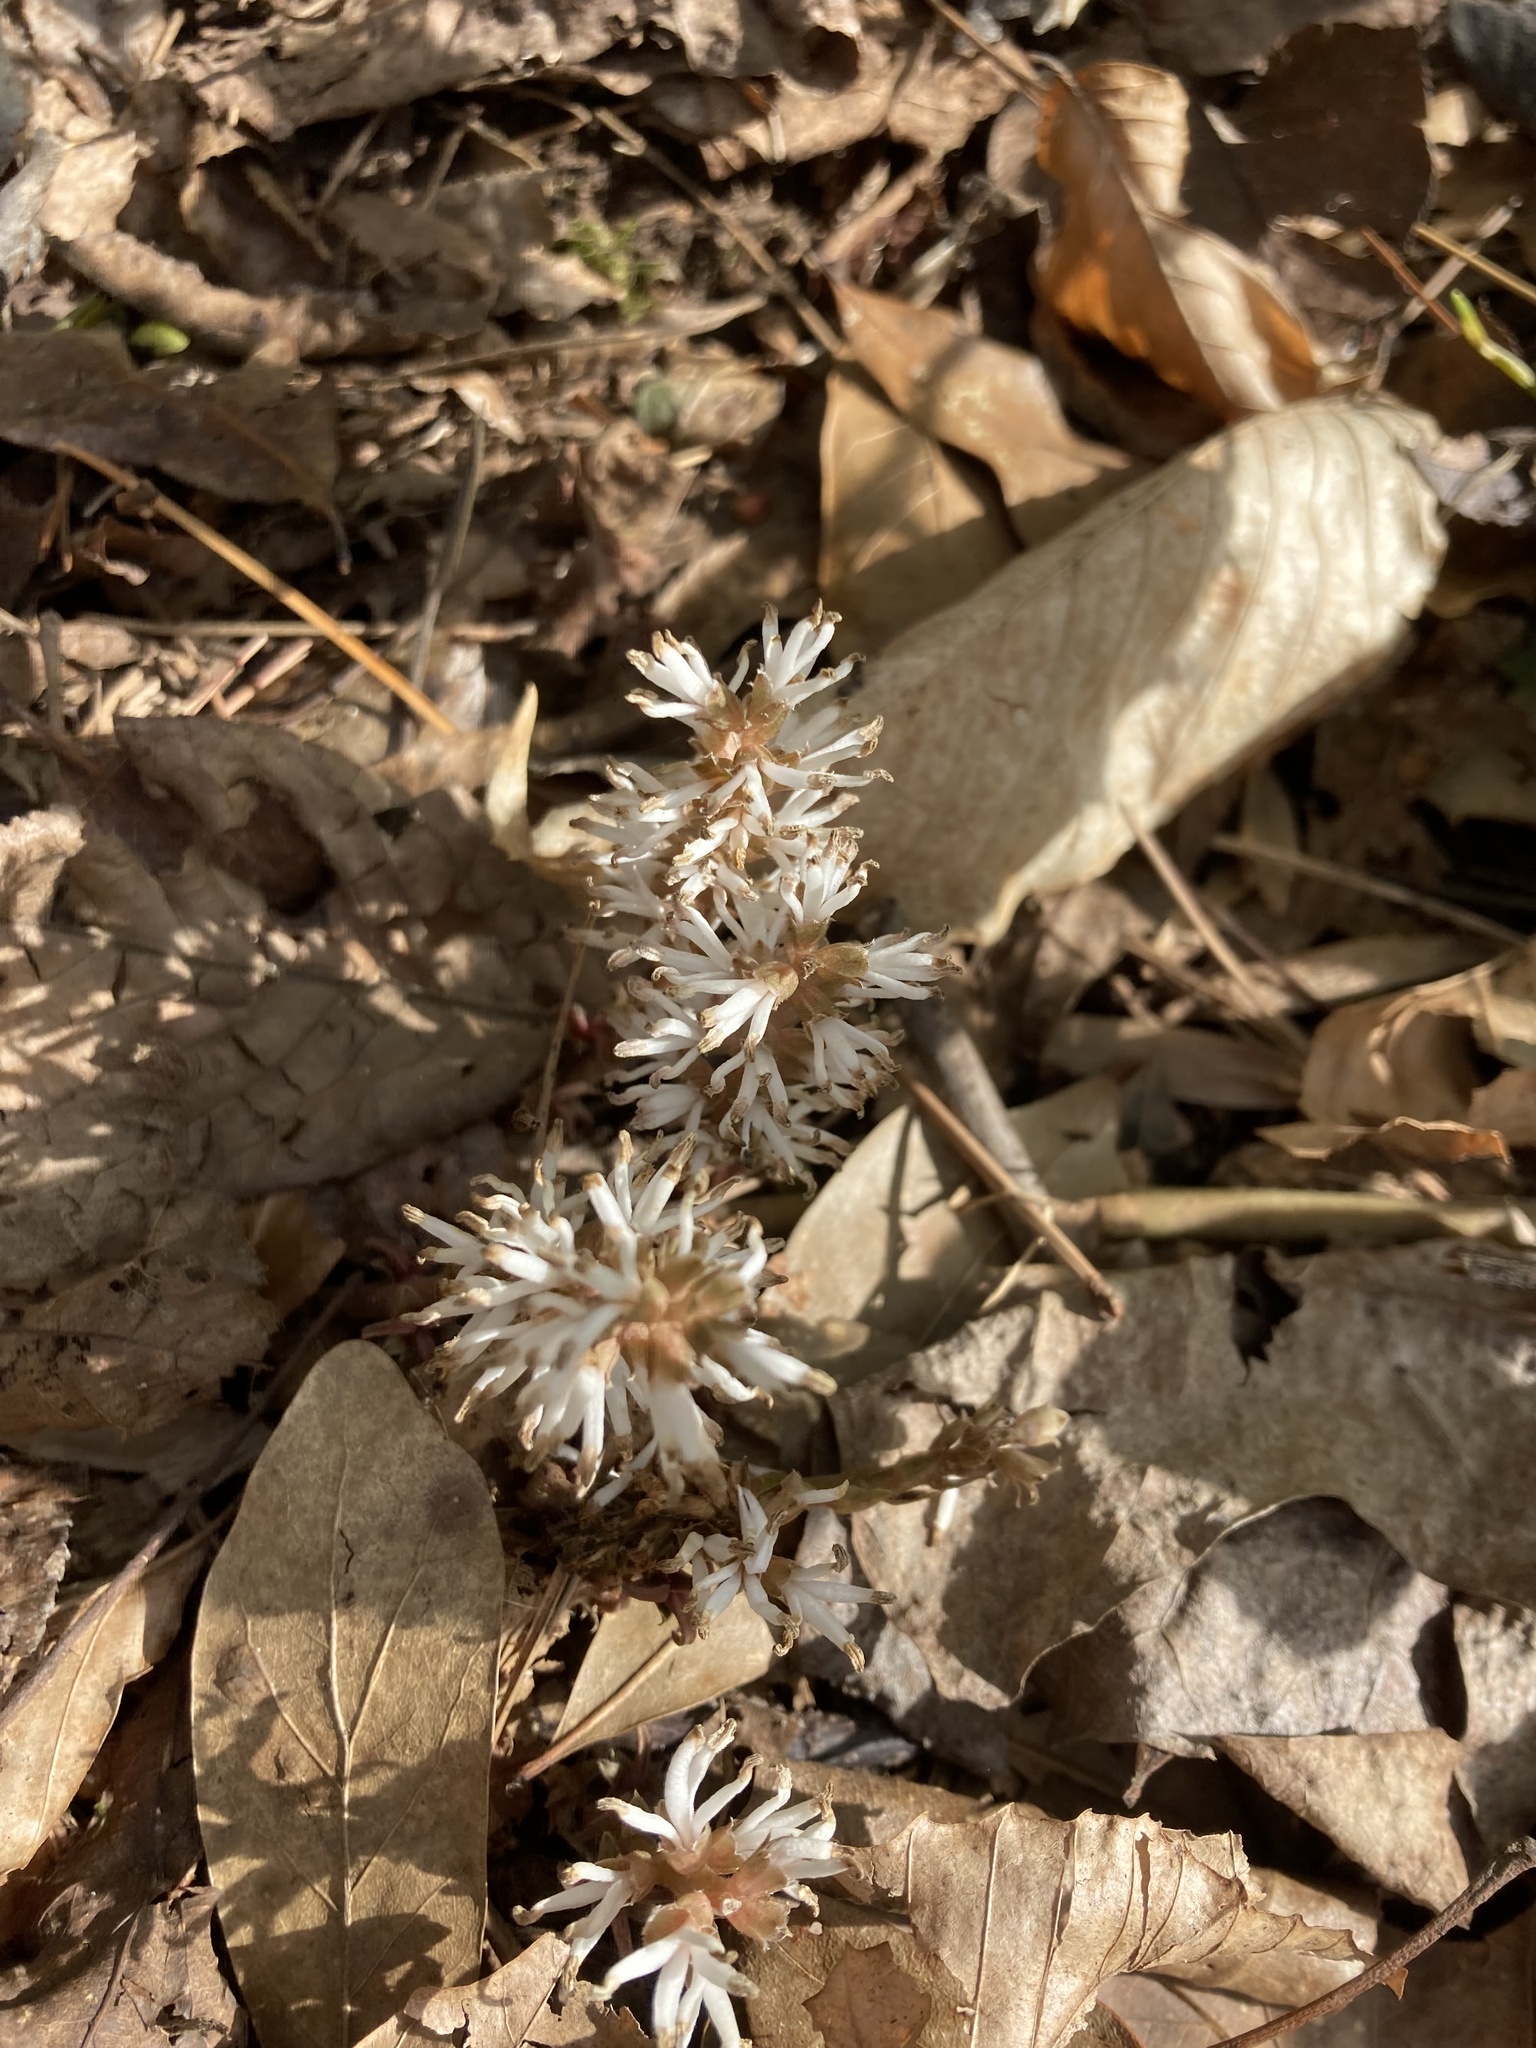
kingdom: Plantae
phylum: Tracheophyta
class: Magnoliopsida
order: Buxales
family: Buxaceae
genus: Pachysandra
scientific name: Pachysandra procumbens
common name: Mountain-spurge
